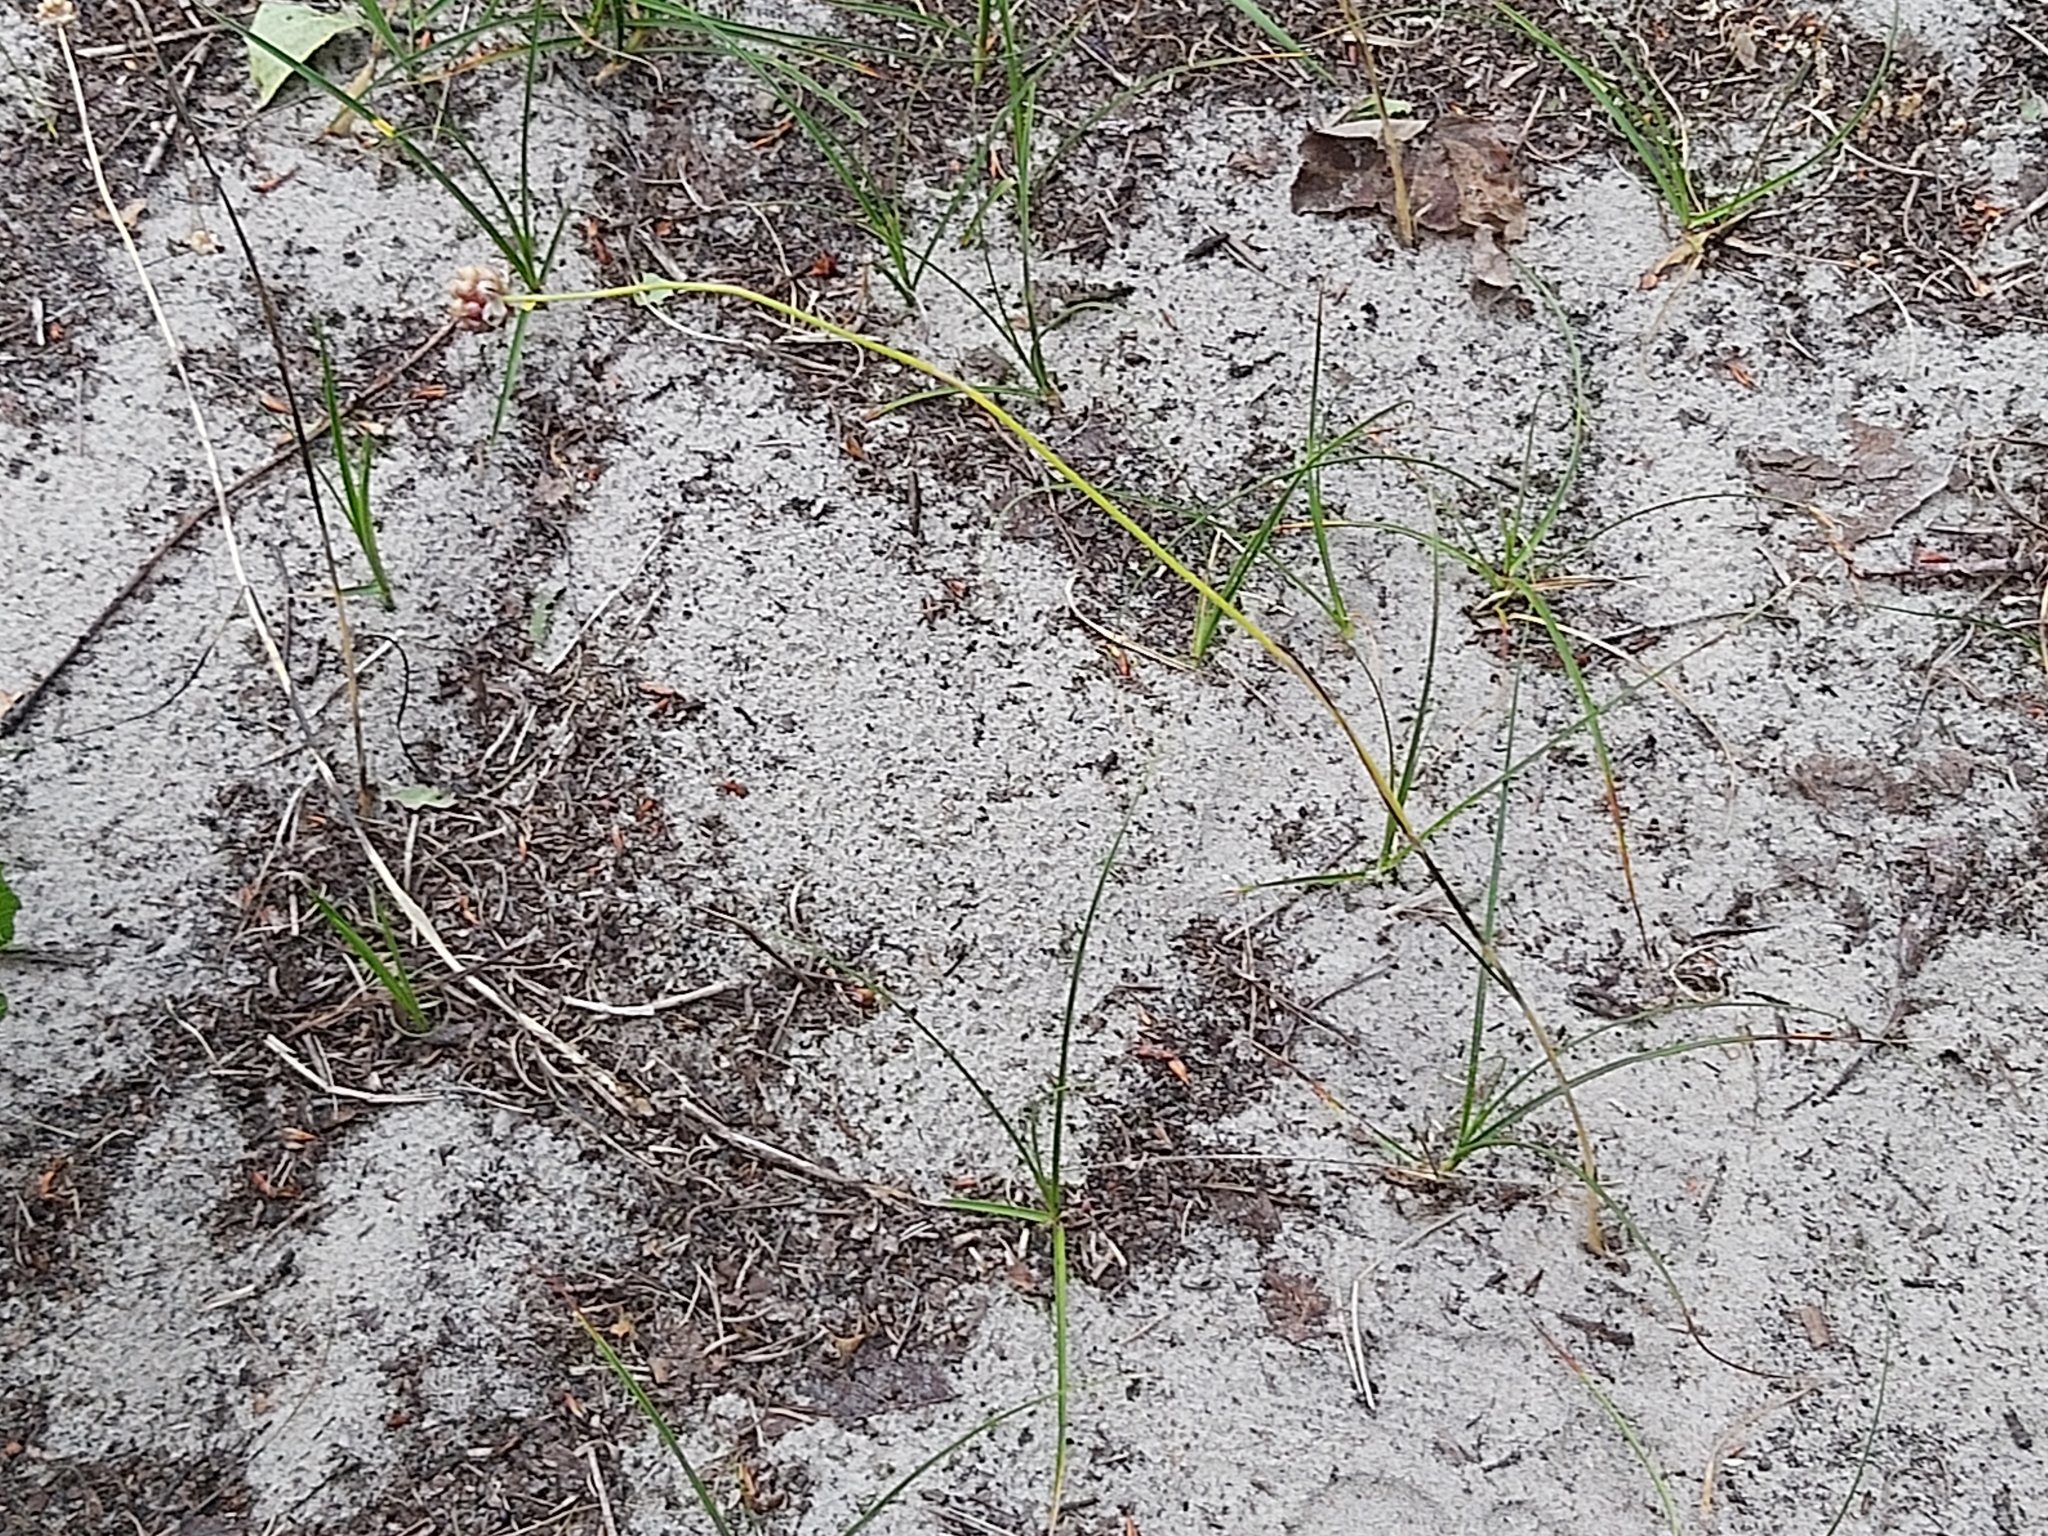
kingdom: Plantae
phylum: Tracheophyta
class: Liliopsida
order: Asparagales
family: Amaryllidaceae
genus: Allium
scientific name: Allium vineale
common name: Crow garlic
